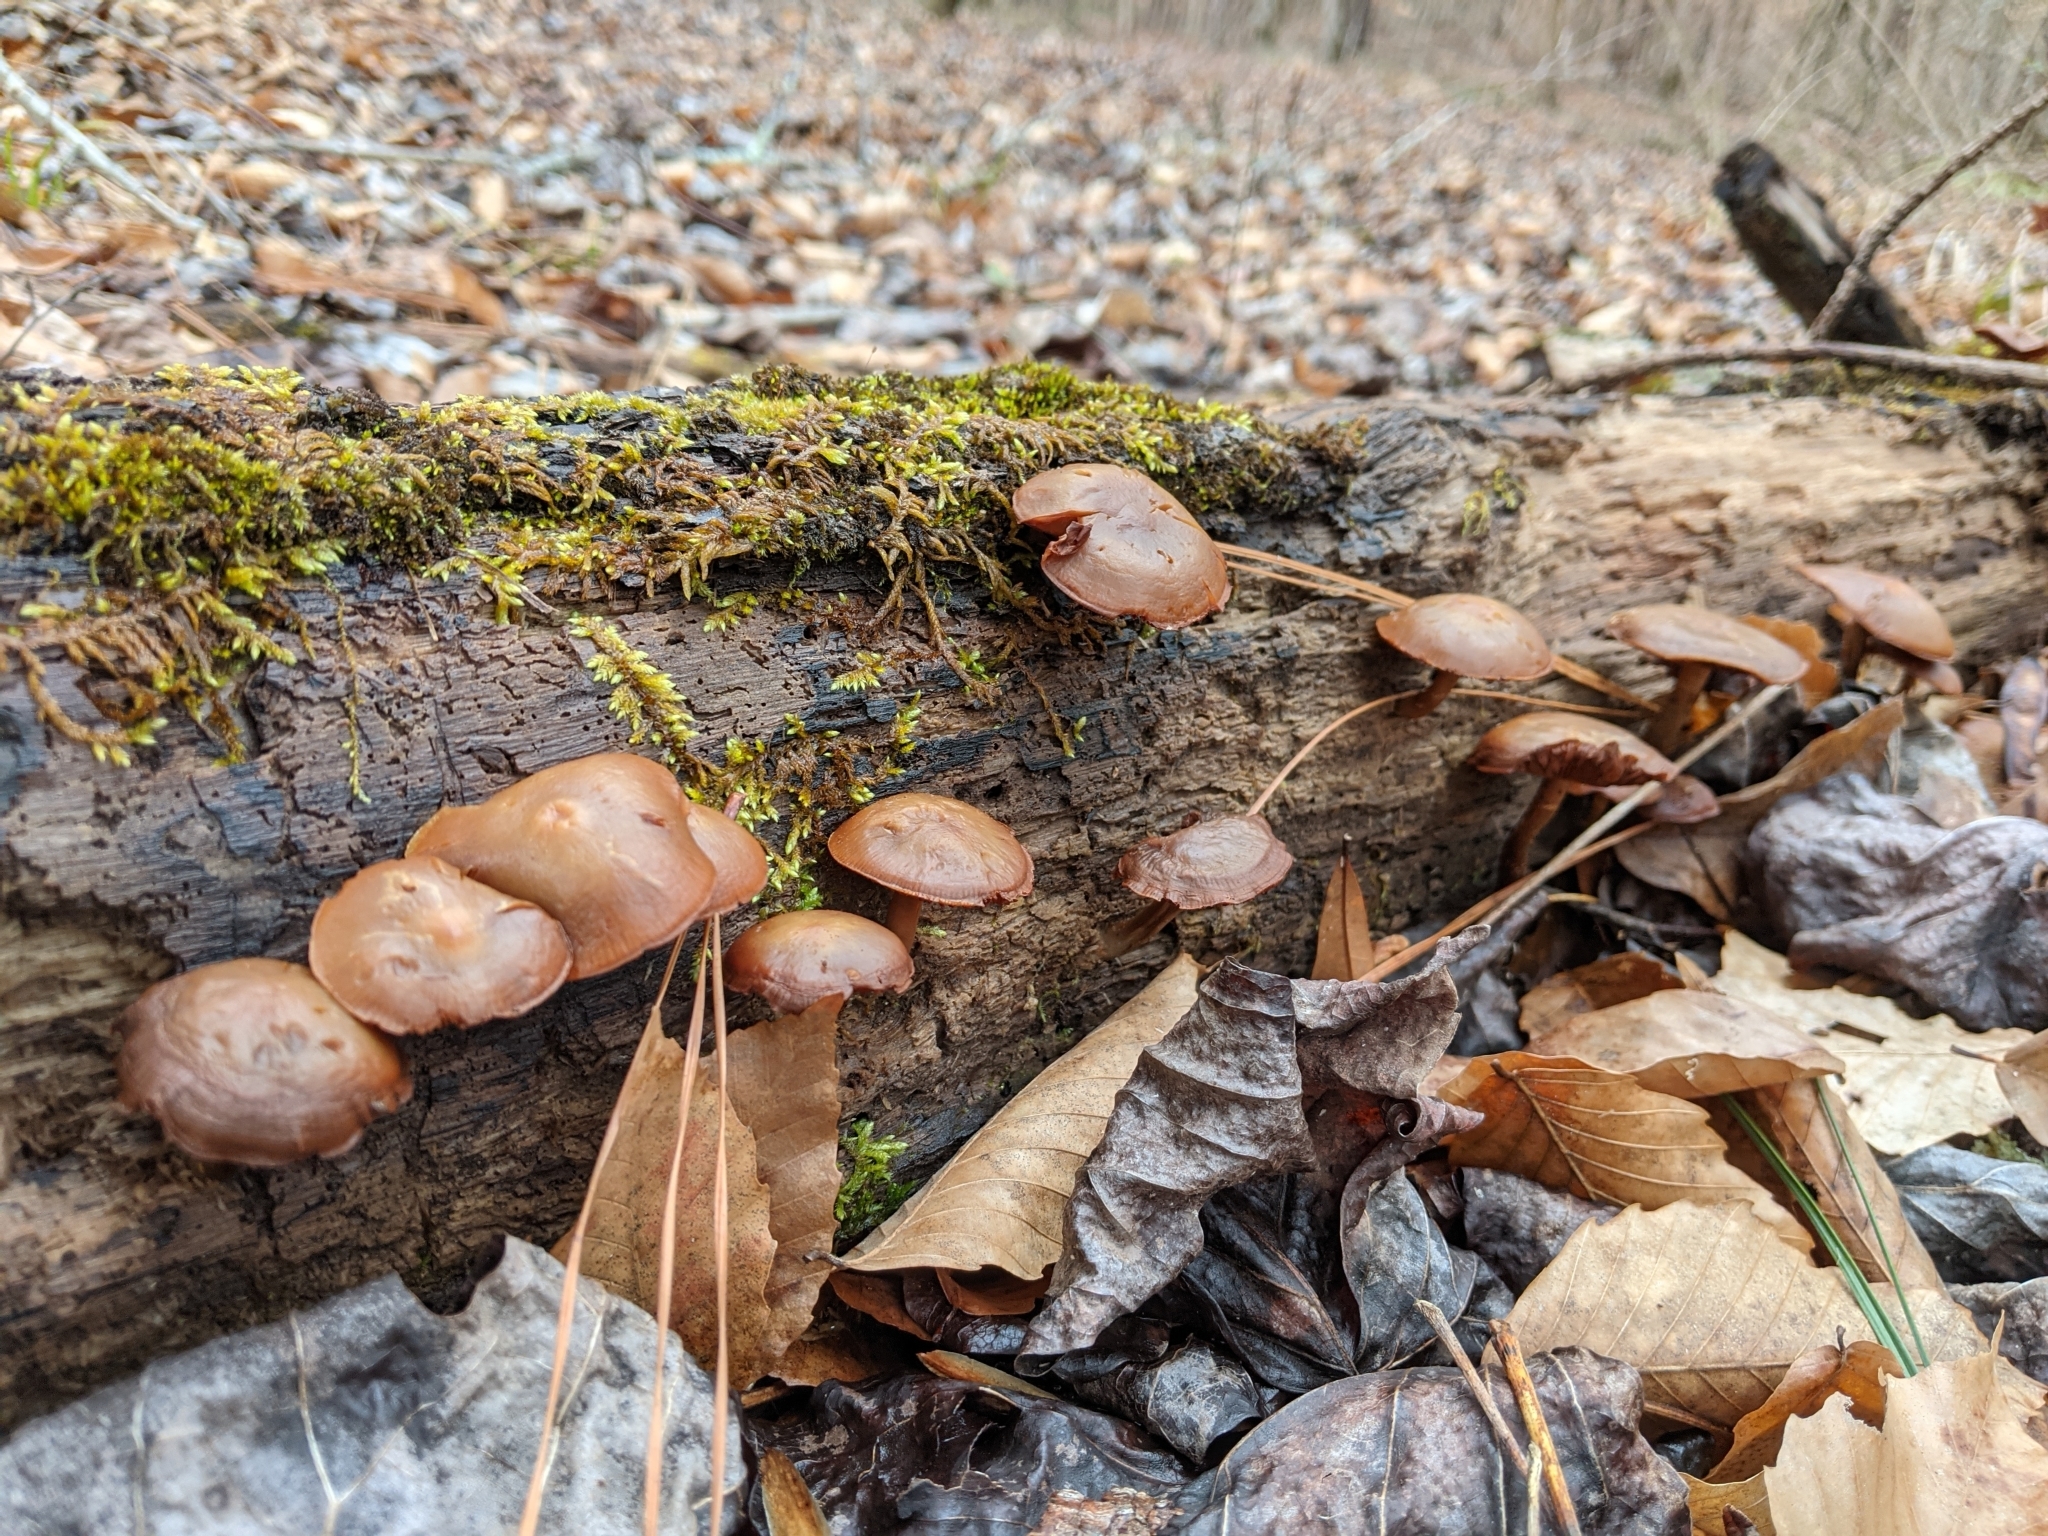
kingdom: Fungi
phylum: Basidiomycota
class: Agaricomycetes
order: Agaricales
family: Hymenogastraceae
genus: Galerina
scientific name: Galerina marginata
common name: Funeral bell
